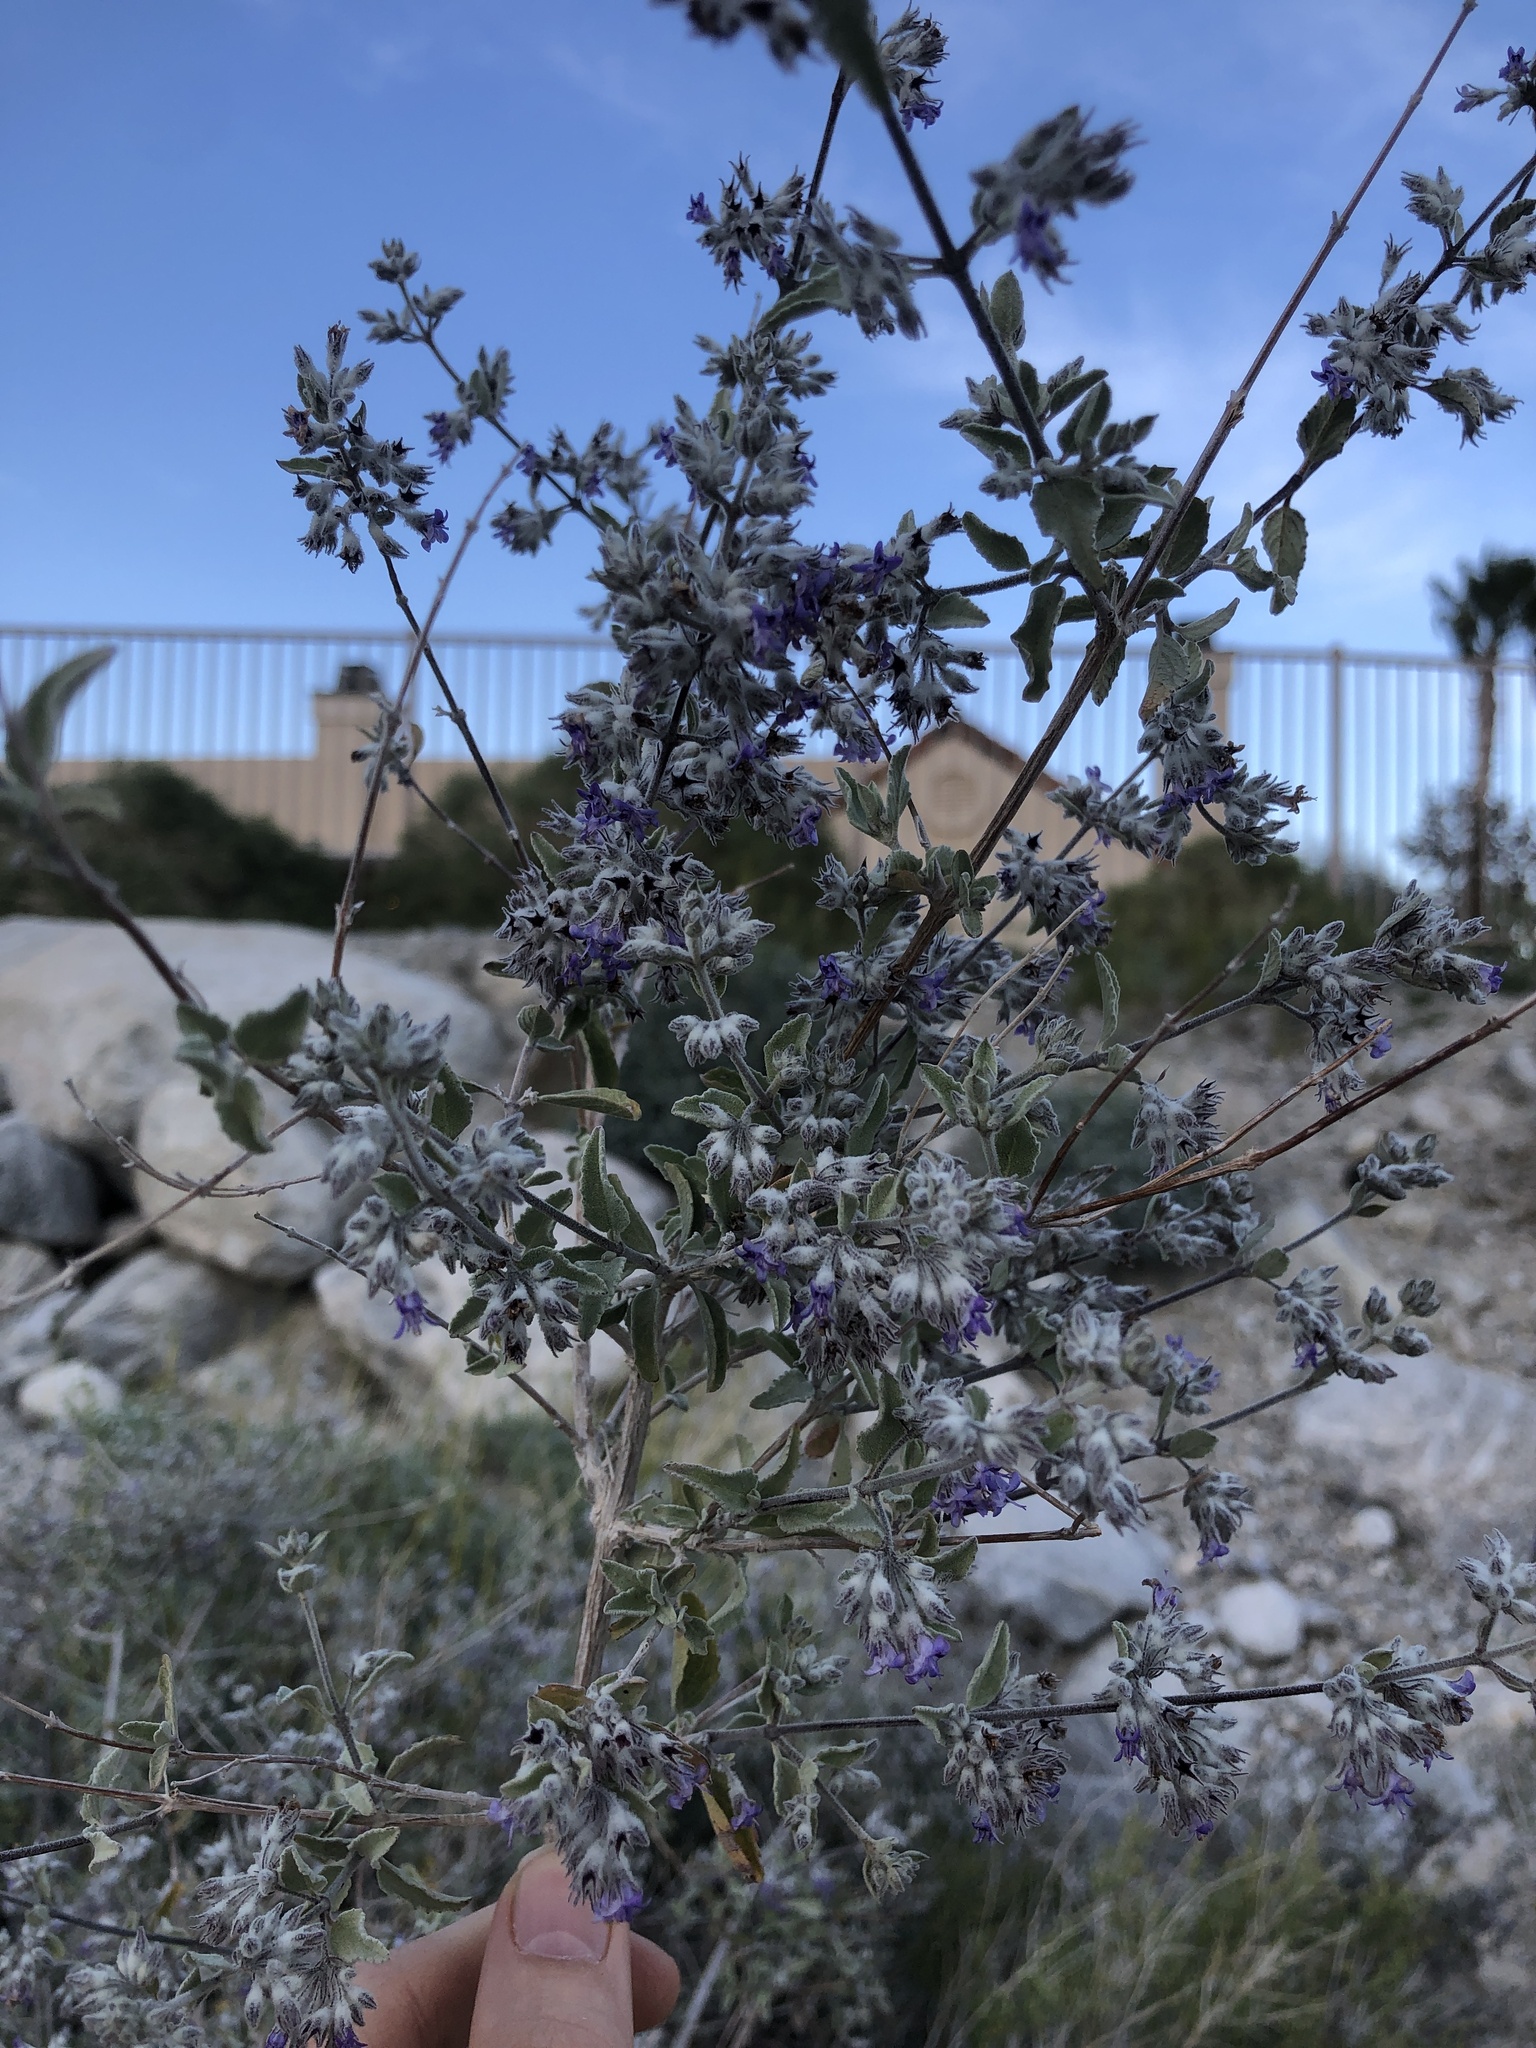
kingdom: Plantae
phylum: Tracheophyta
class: Magnoliopsida
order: Lamiales
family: Lamiaceae
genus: Condea
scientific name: Condea emoryi
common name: Chia
